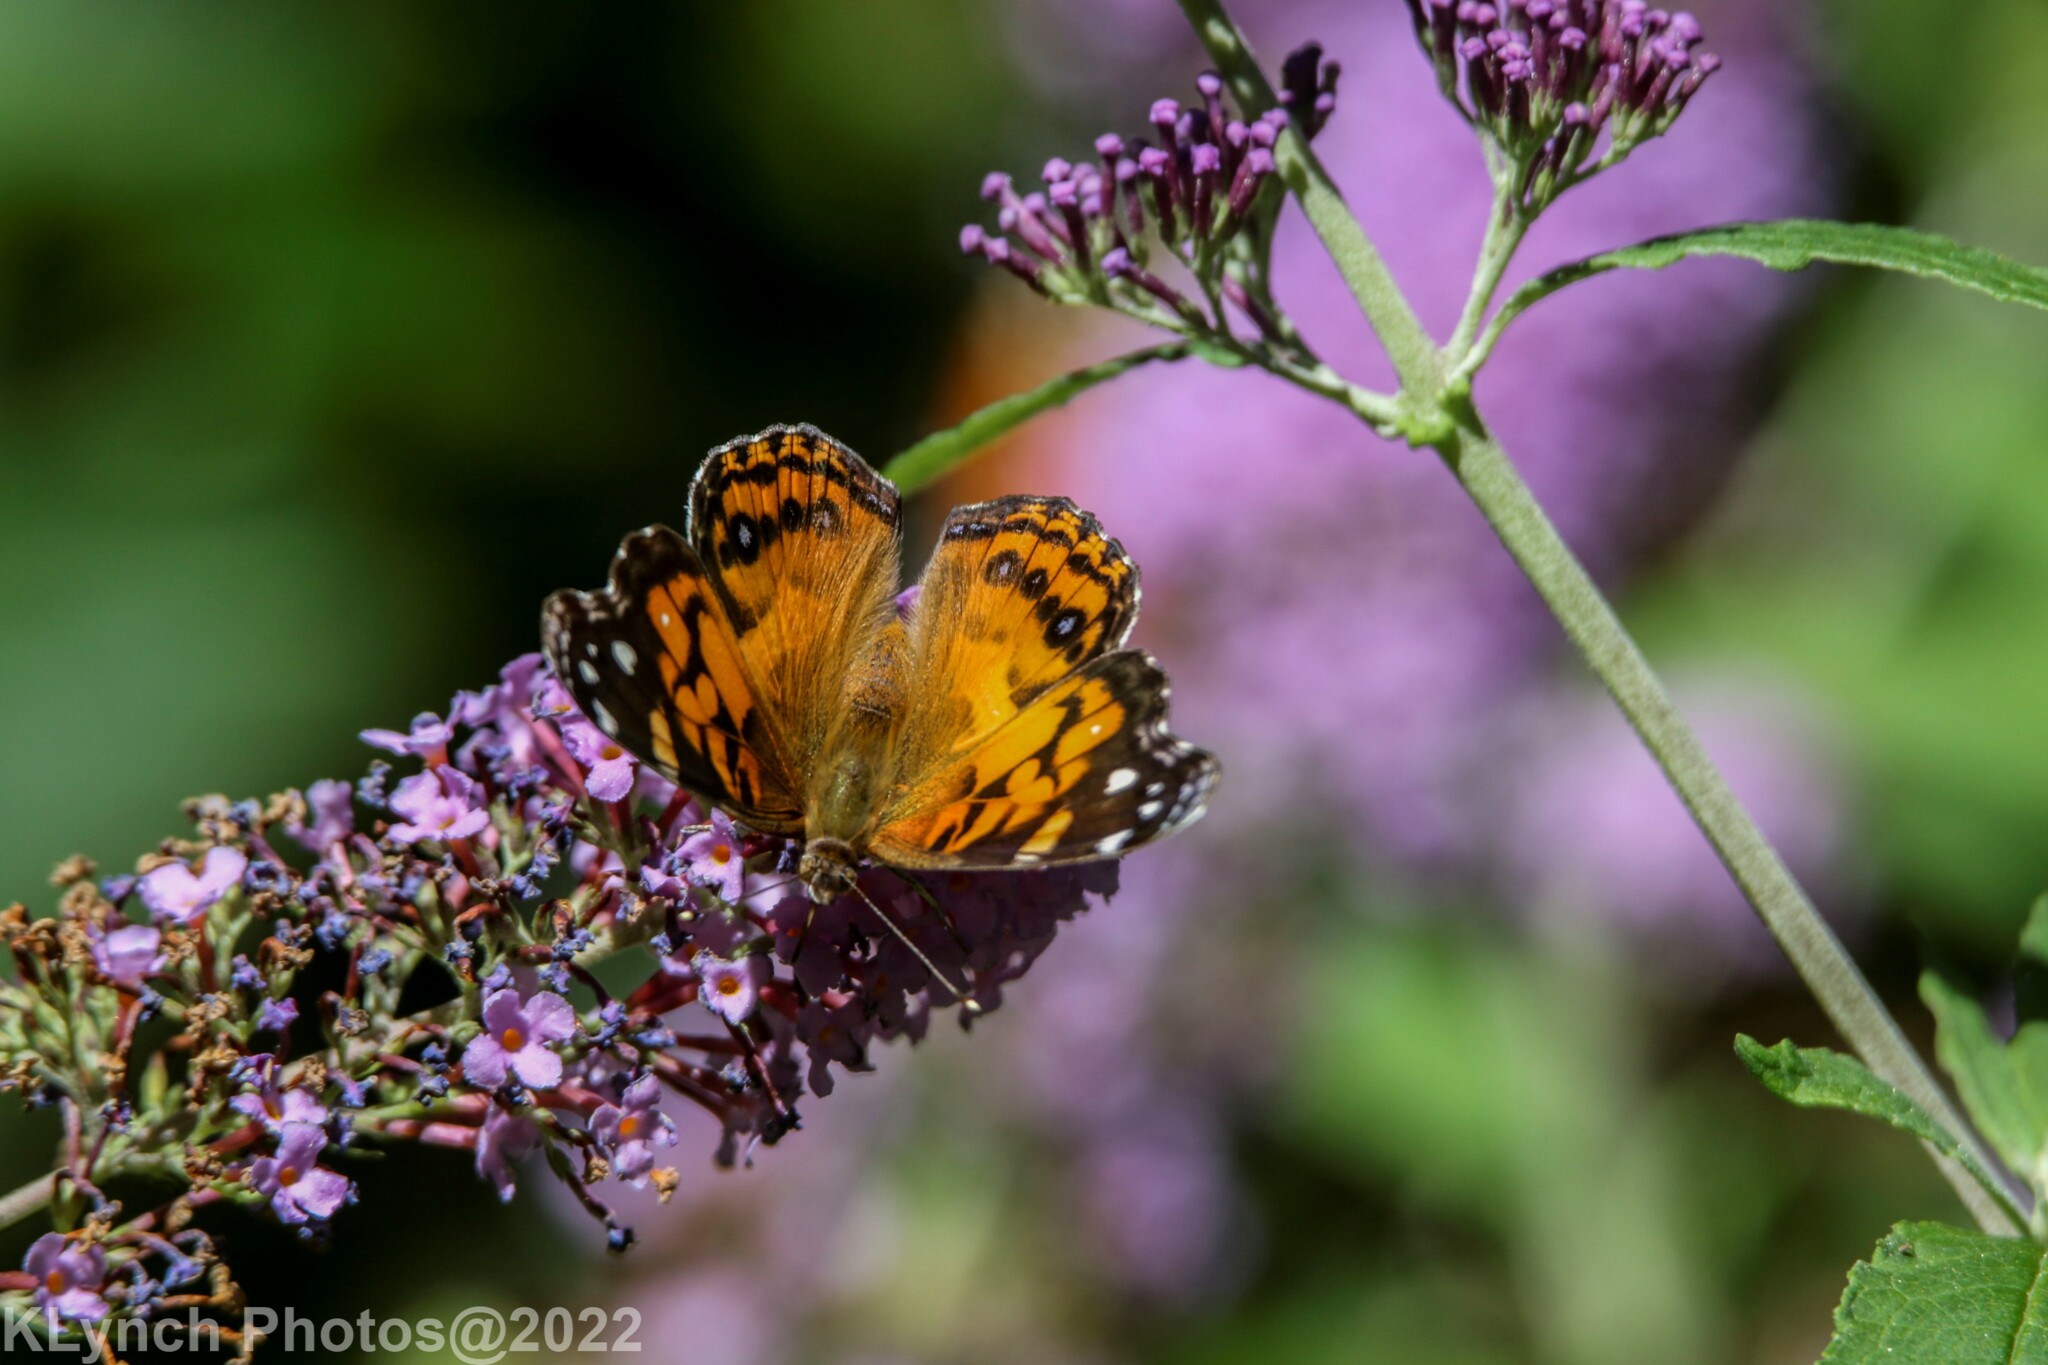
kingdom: Animalia
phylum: Arthropoda
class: Insecta
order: Lepidoptera
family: Nymphalidae
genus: Vanessa
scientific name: Vanessa virginiensis
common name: American lady
